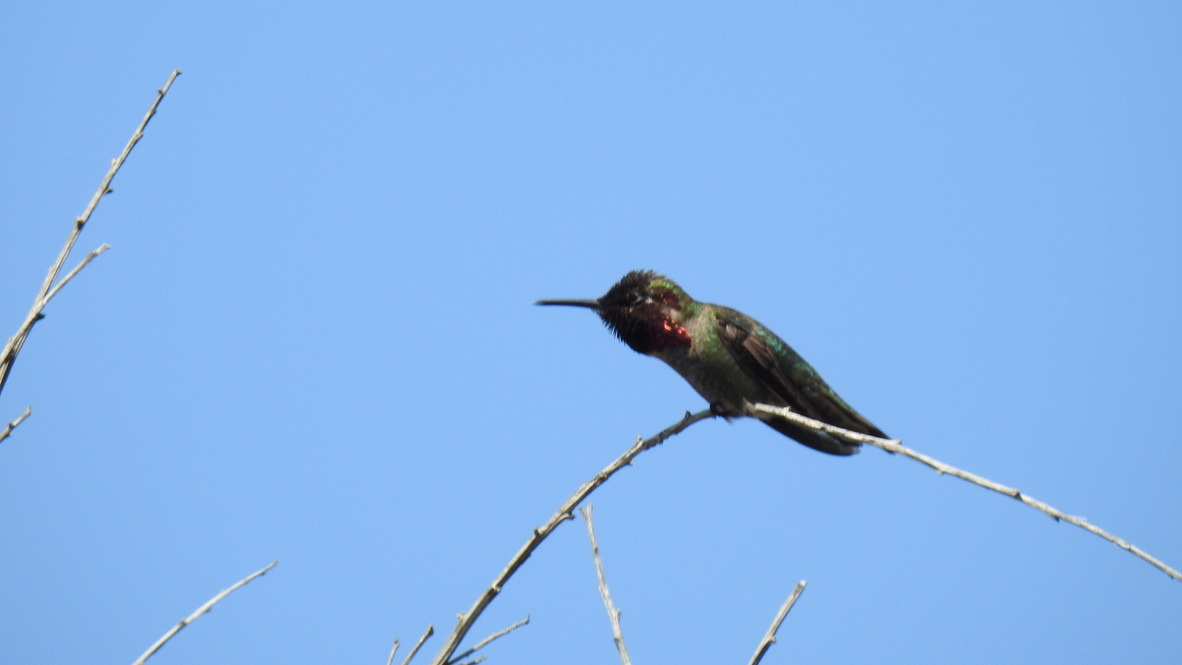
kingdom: Animalia
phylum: Chordata
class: Aves
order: Apodiformes
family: Trochilidae
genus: Calypte
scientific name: Calypte anna
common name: Anna's hummingbird
